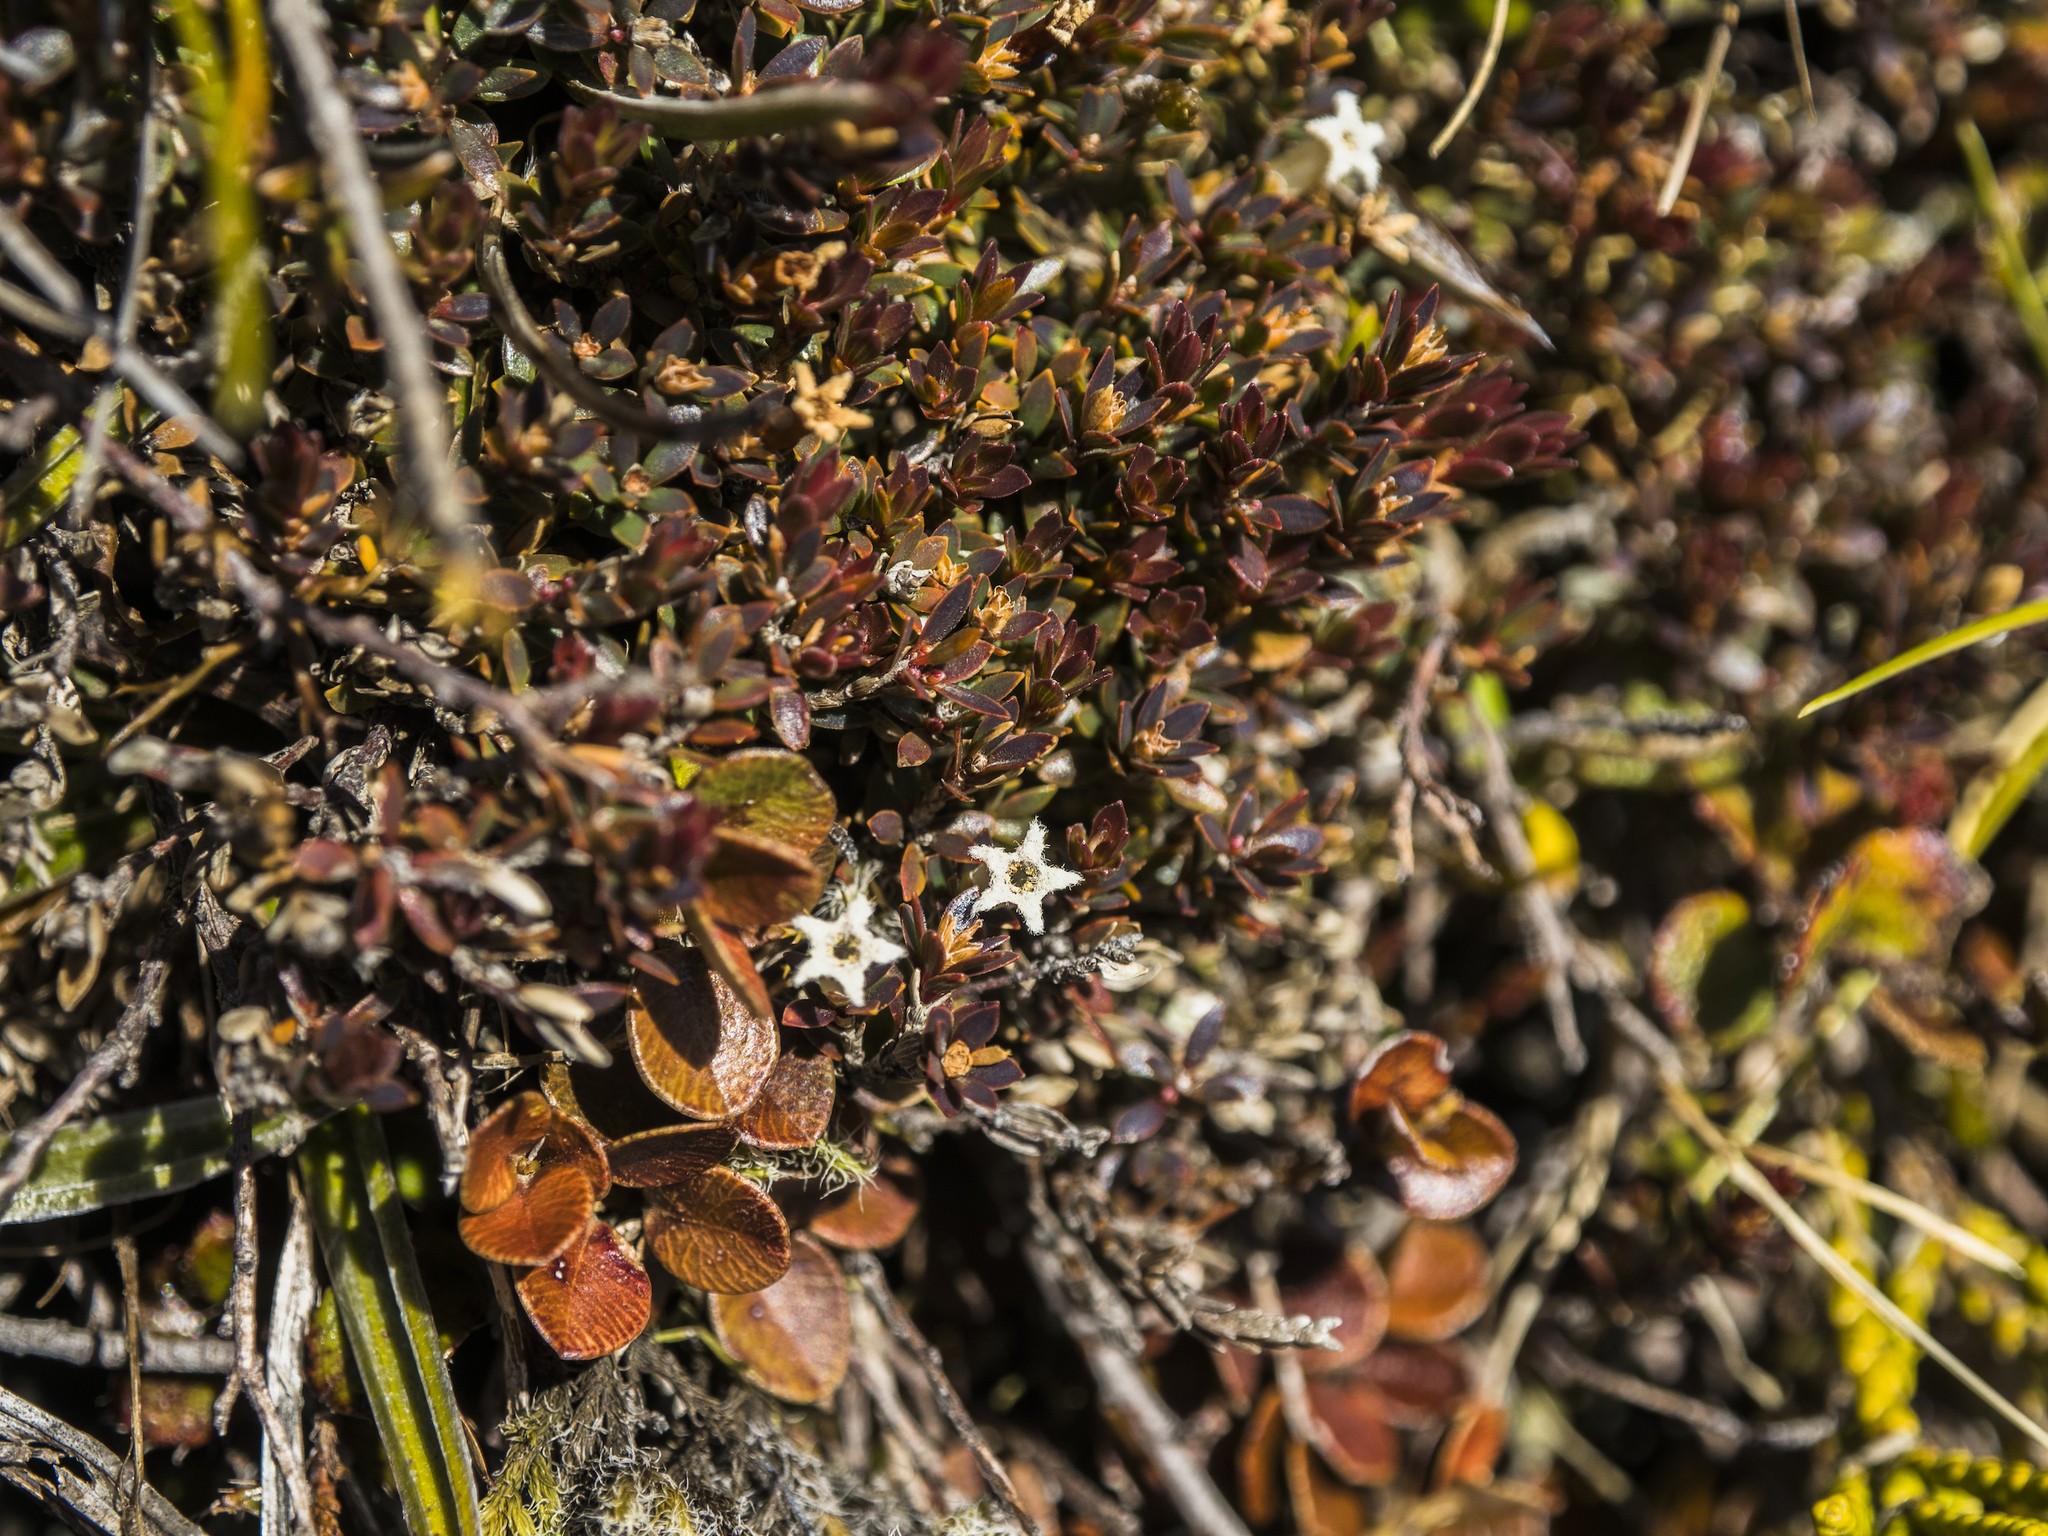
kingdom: Plantae
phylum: Tracheophyta
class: Magnoliopsida
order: Ericales
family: Ericaceae
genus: Pentachondra
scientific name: Pentachondra pumila
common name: Carpet-heath
